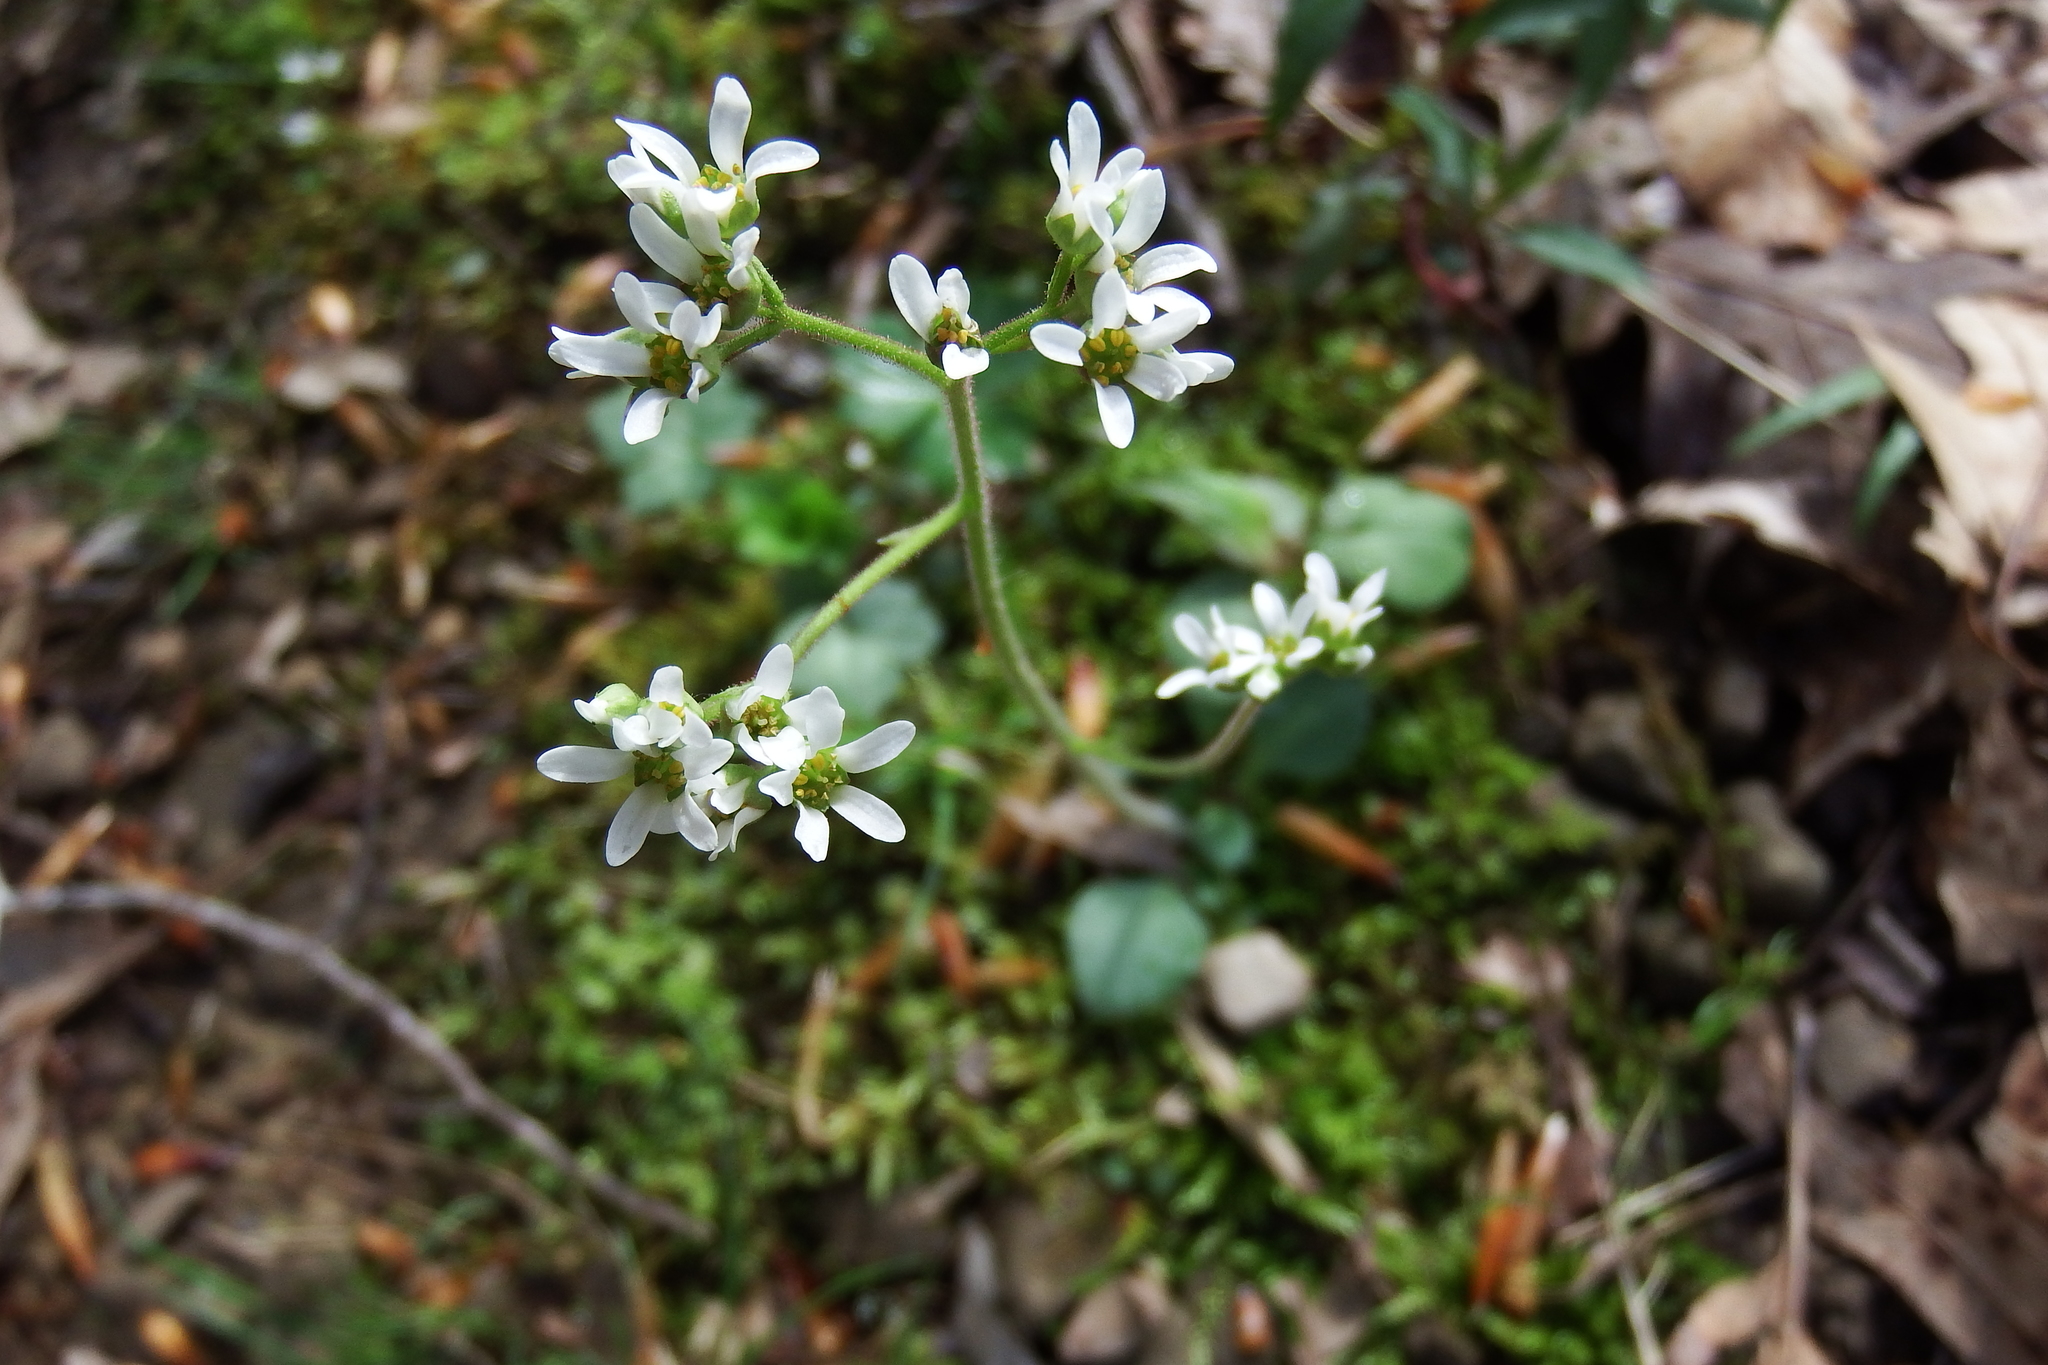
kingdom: Plantae
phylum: Tracheophyta
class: Magnoliopsida
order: Saxifragales
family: Saxifragaceae
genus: Micranthes
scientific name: Micranthes virginiensis
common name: Early saxifrage
